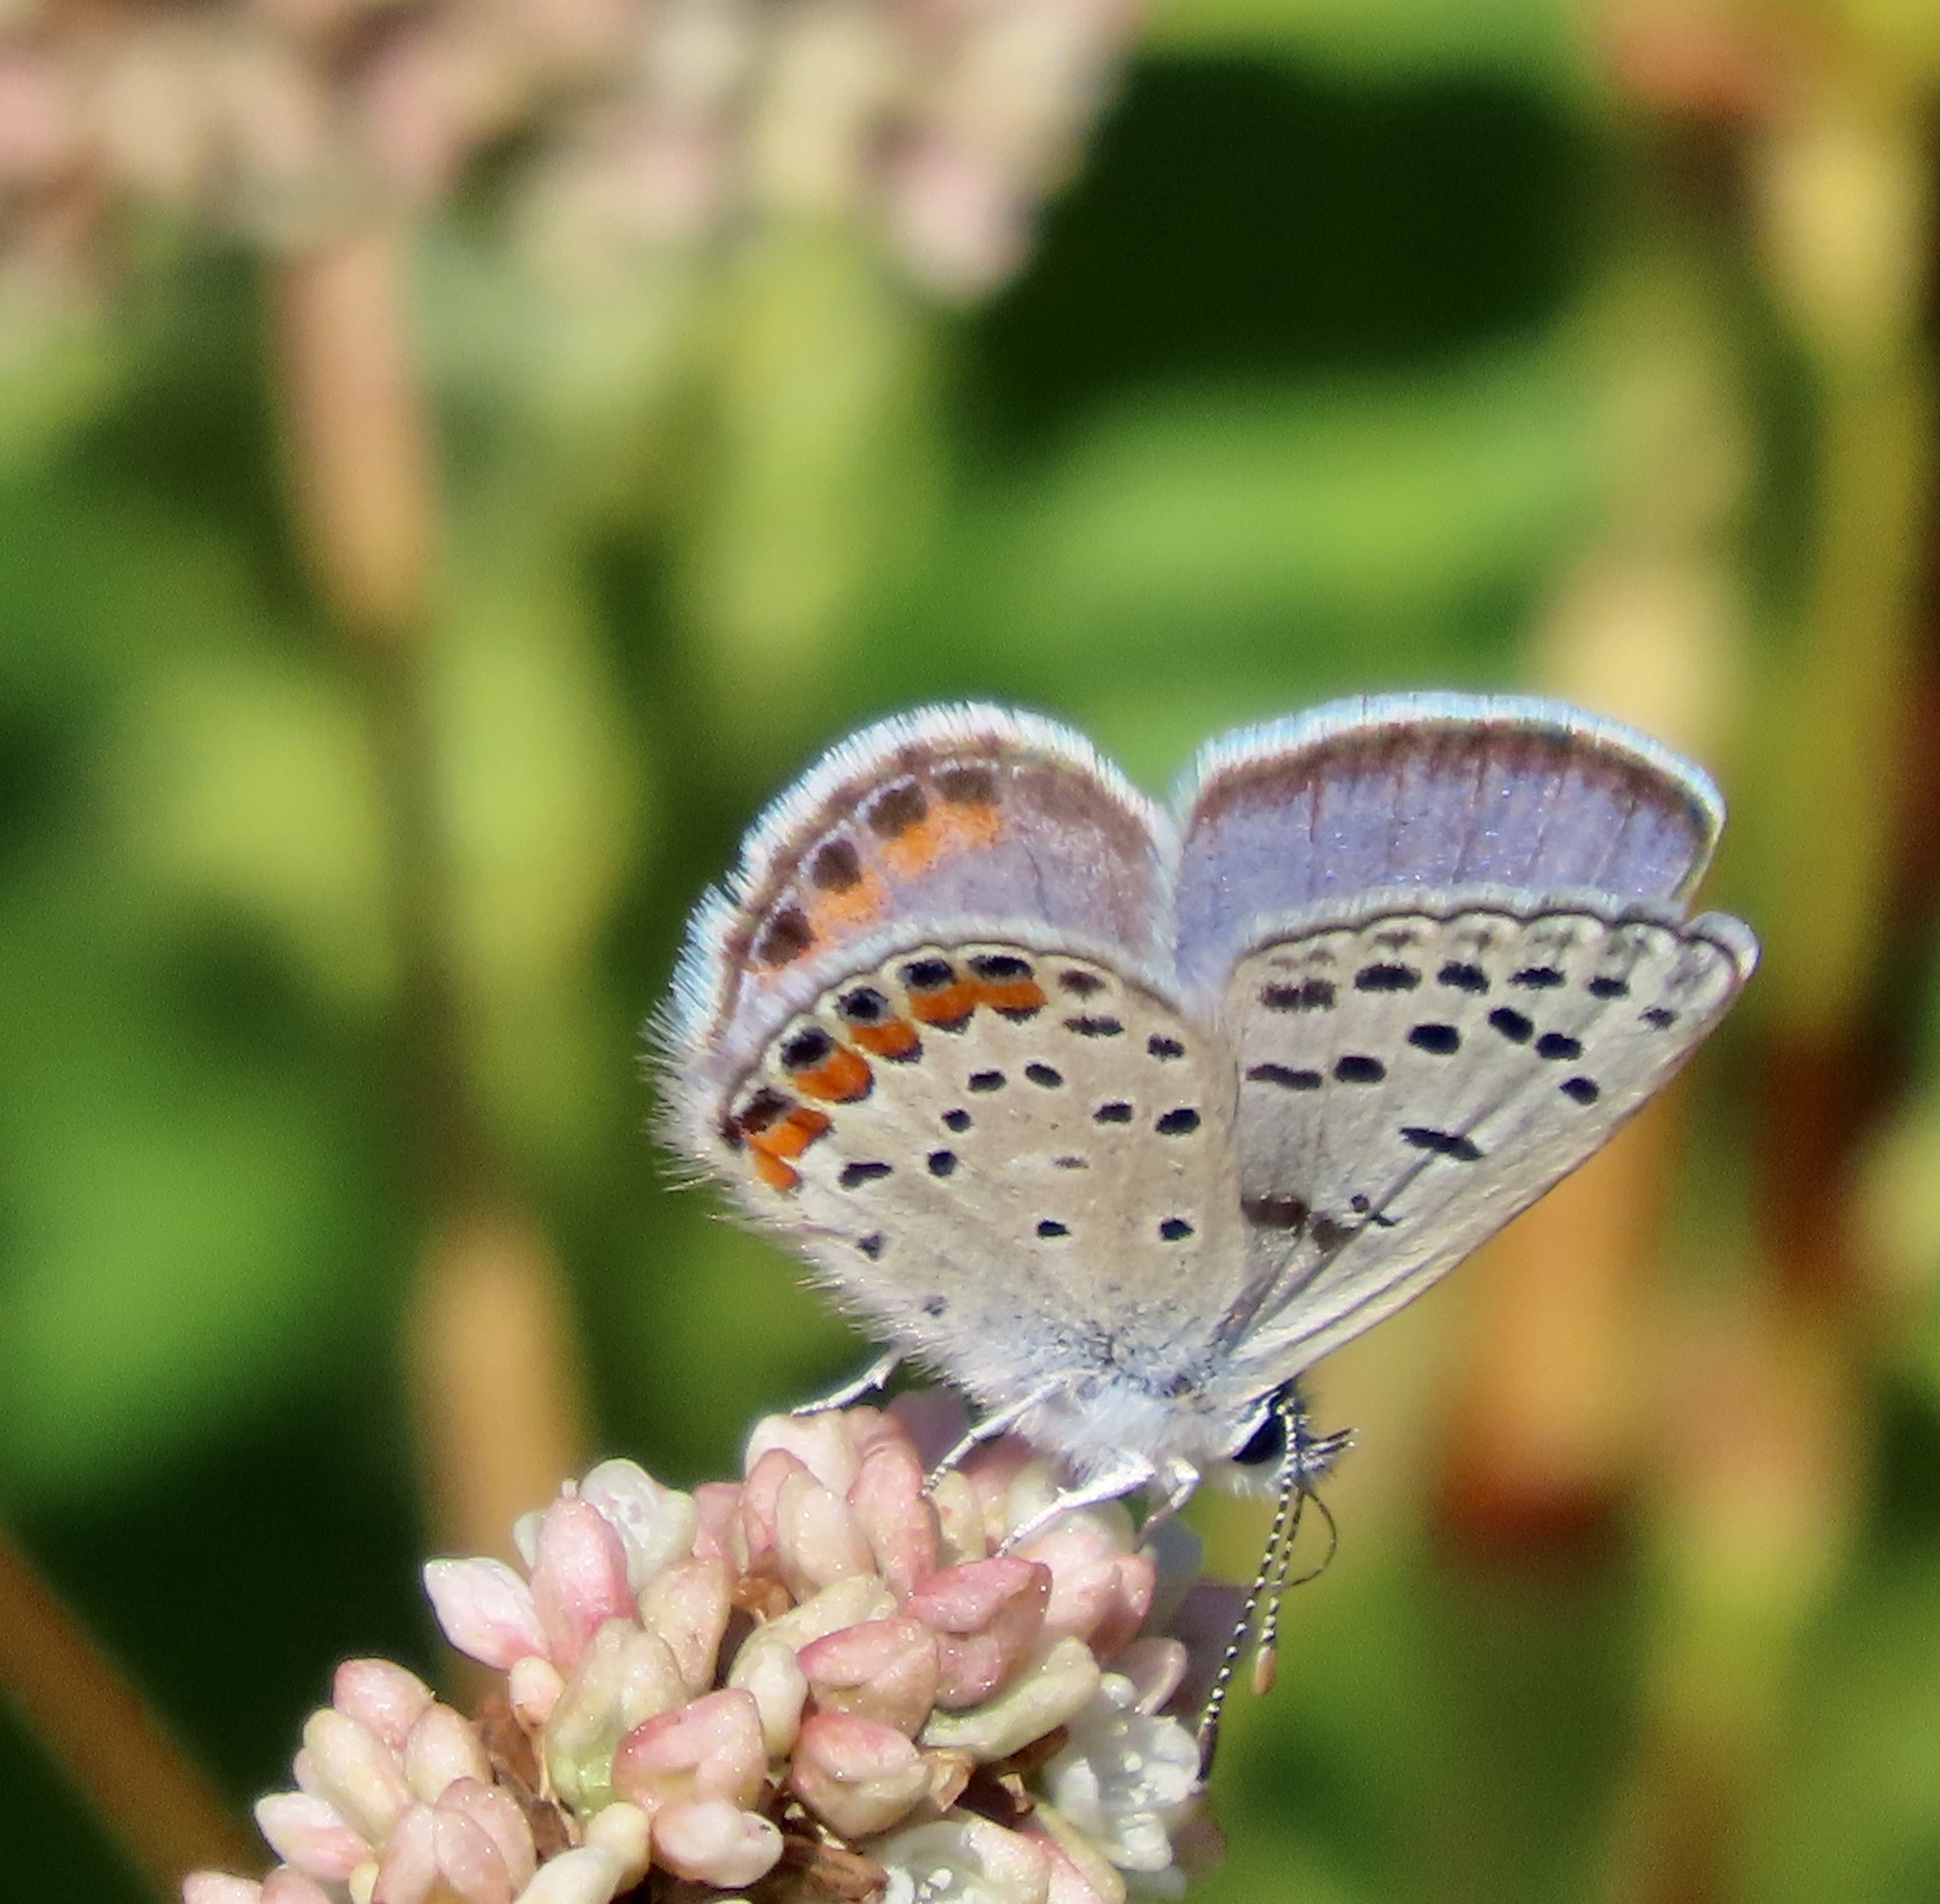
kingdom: Animalia
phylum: Arthropoda
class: Insecta
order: Lepidoptera
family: Lycaenidae
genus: Icaricia
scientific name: Icaricia acmon
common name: Acmon blue
